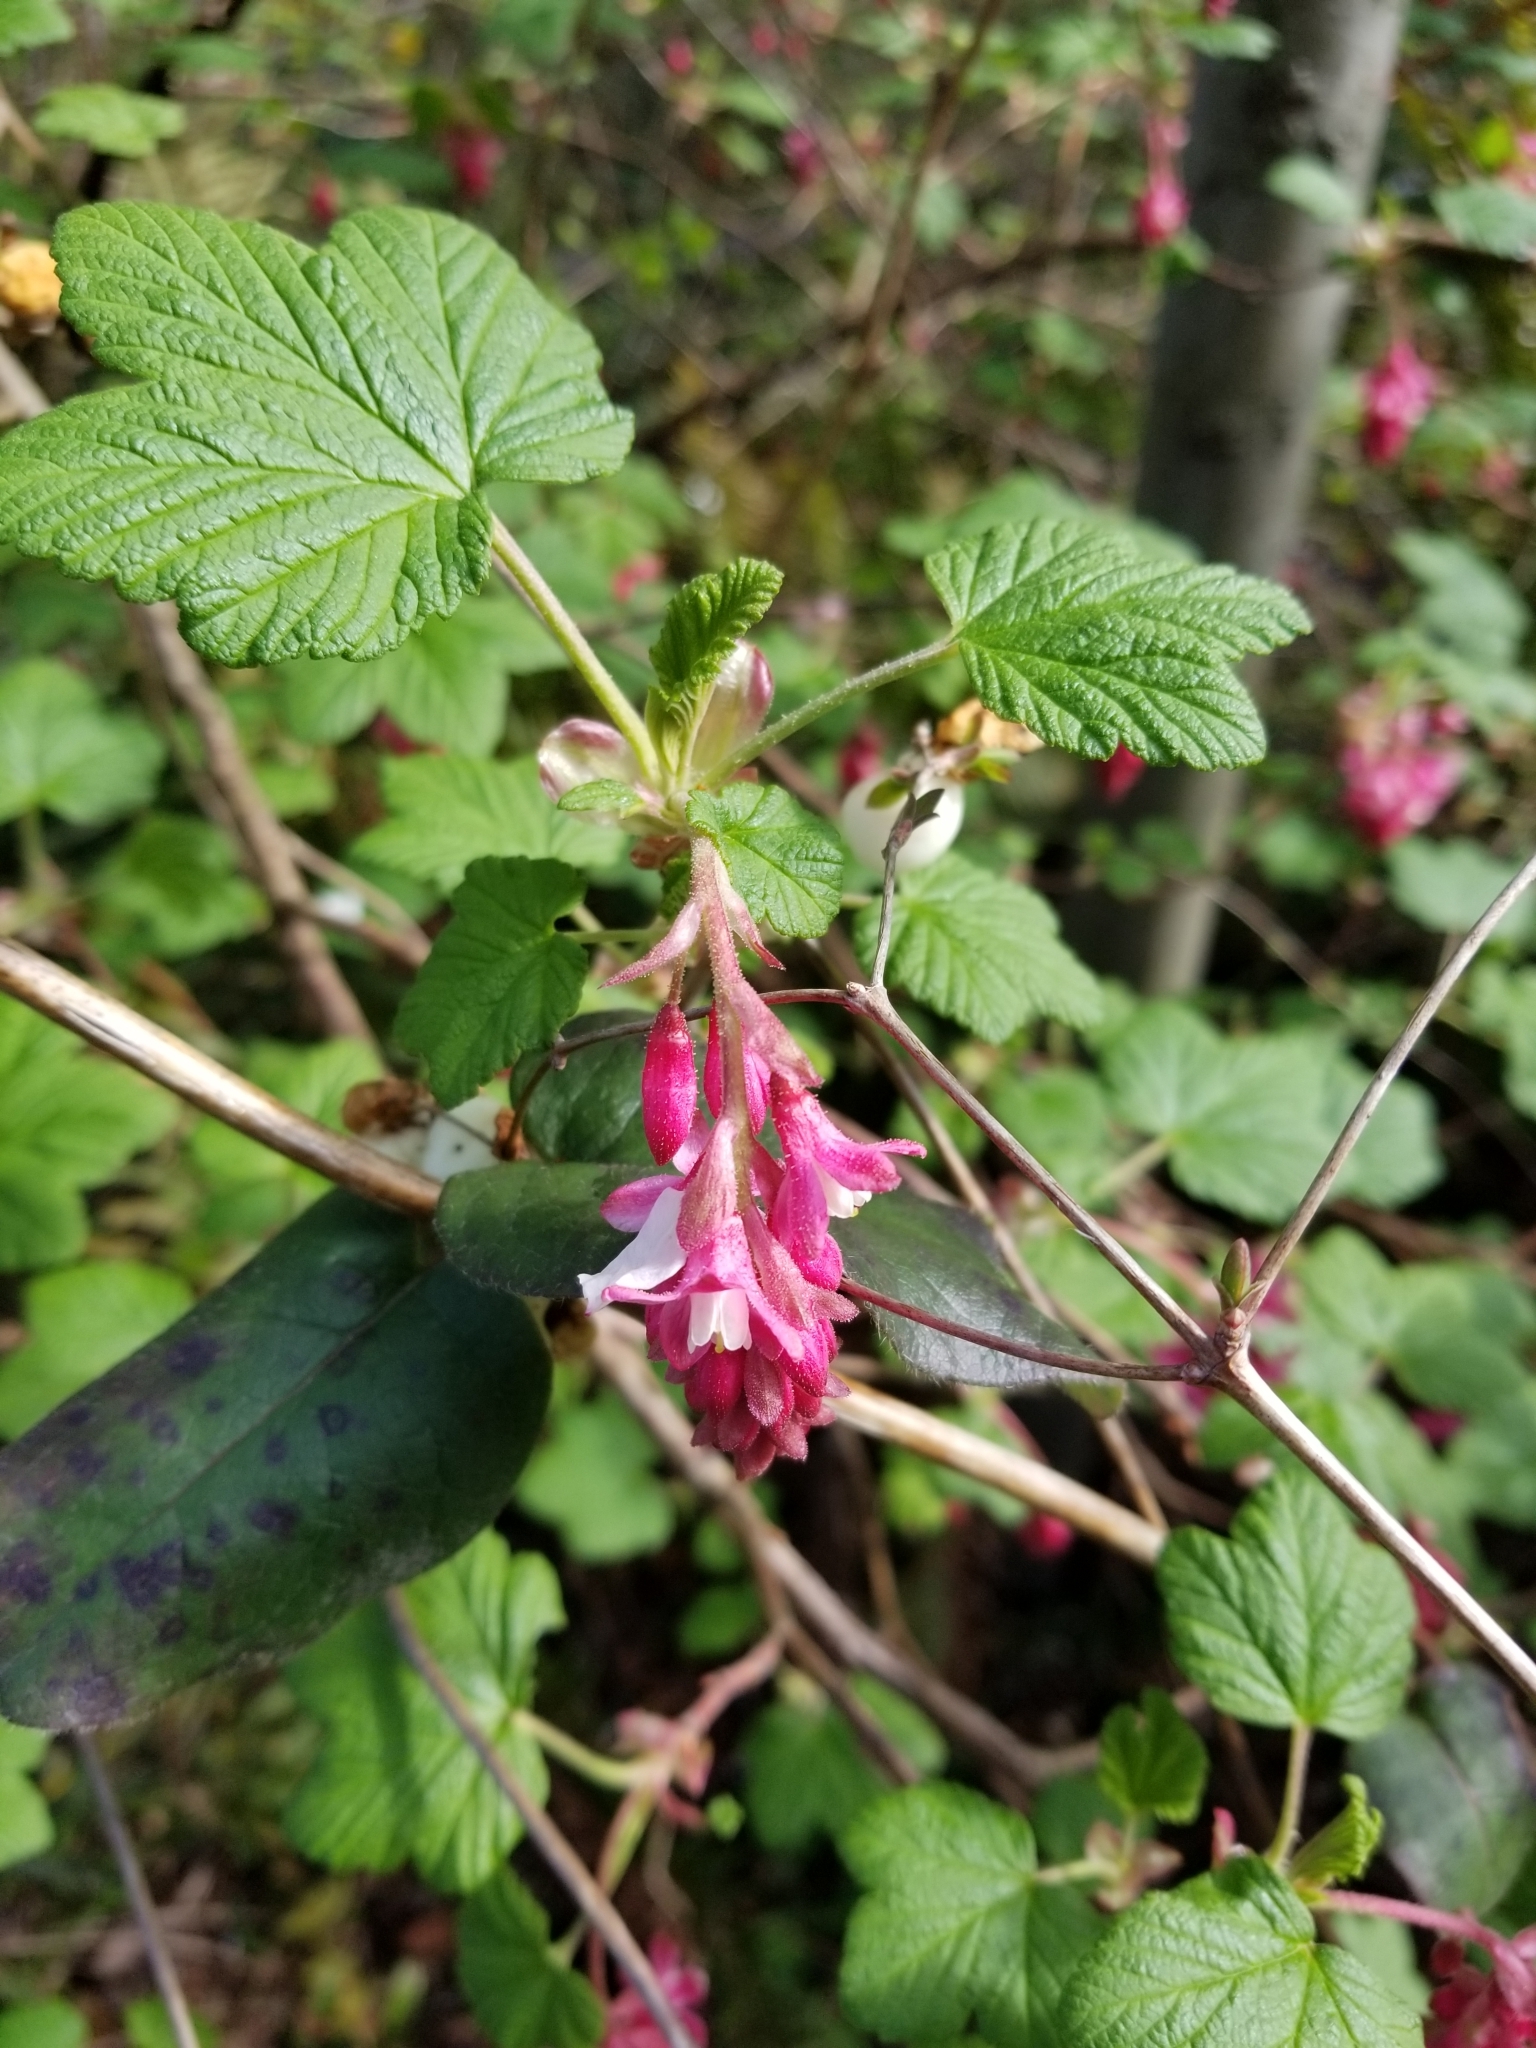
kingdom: Plantae
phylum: Tracheophyta
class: Magnoliopsida
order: Saxifragales
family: Grossulariaceae
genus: Ribes
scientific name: Ribes sanguineum
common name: Flowering currant
